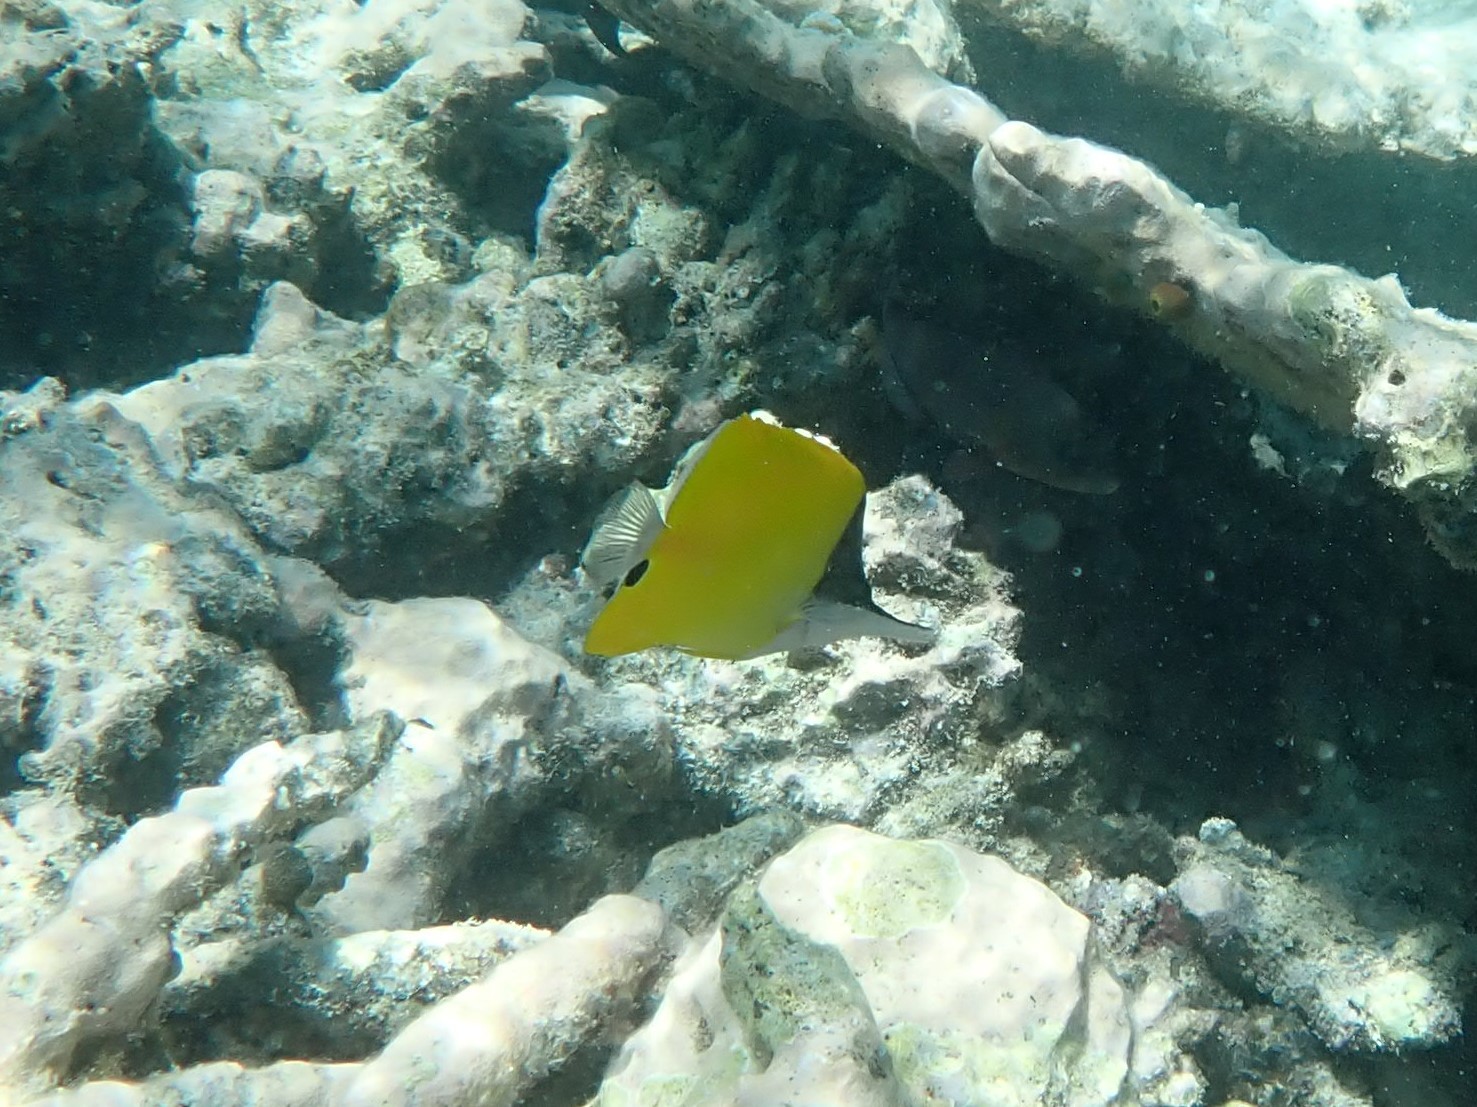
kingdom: Animalia
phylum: Chordata
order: Perciformes
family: Chaetodontidae
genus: Forcipiger
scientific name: Forcipiger flavissimus
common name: Forcepsfish
